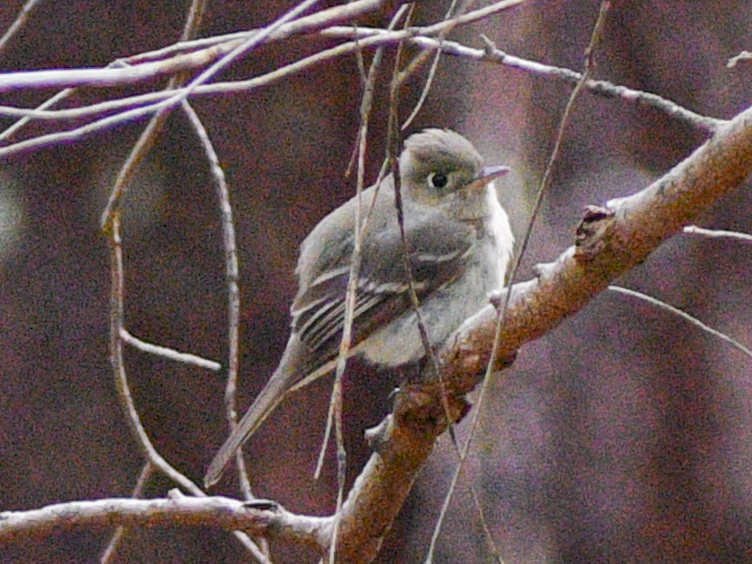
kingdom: Animalia
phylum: Chordata
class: Aves
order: Passeriformes
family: Tyrannidae
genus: Empidonax
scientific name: Empidonax difficilis
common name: Pacific-slope flycatcher
